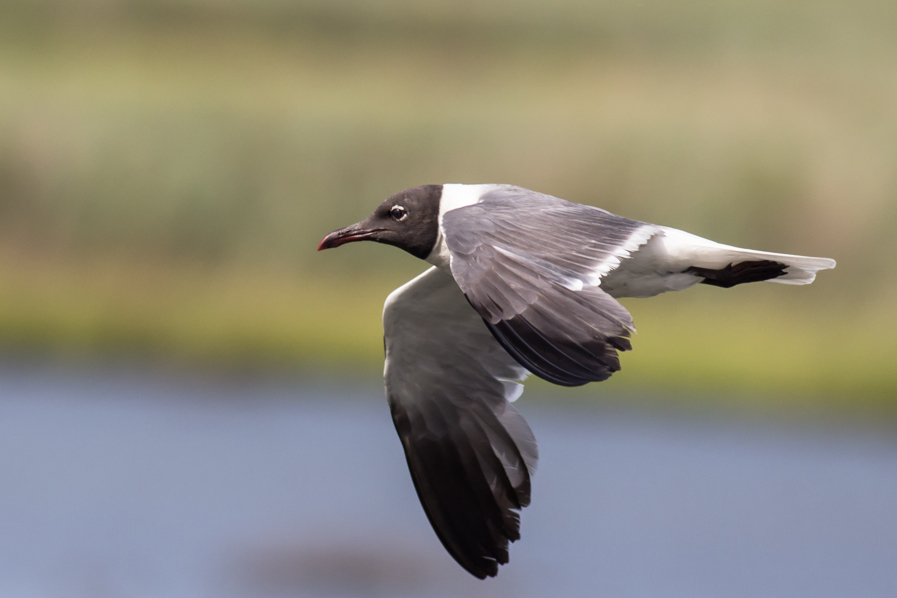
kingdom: Animalia
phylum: Chordata
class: Aves
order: Charadriiformes
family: Laridae
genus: Leucophaeus
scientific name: Leucophaeus atricilla
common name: Laughing gull
